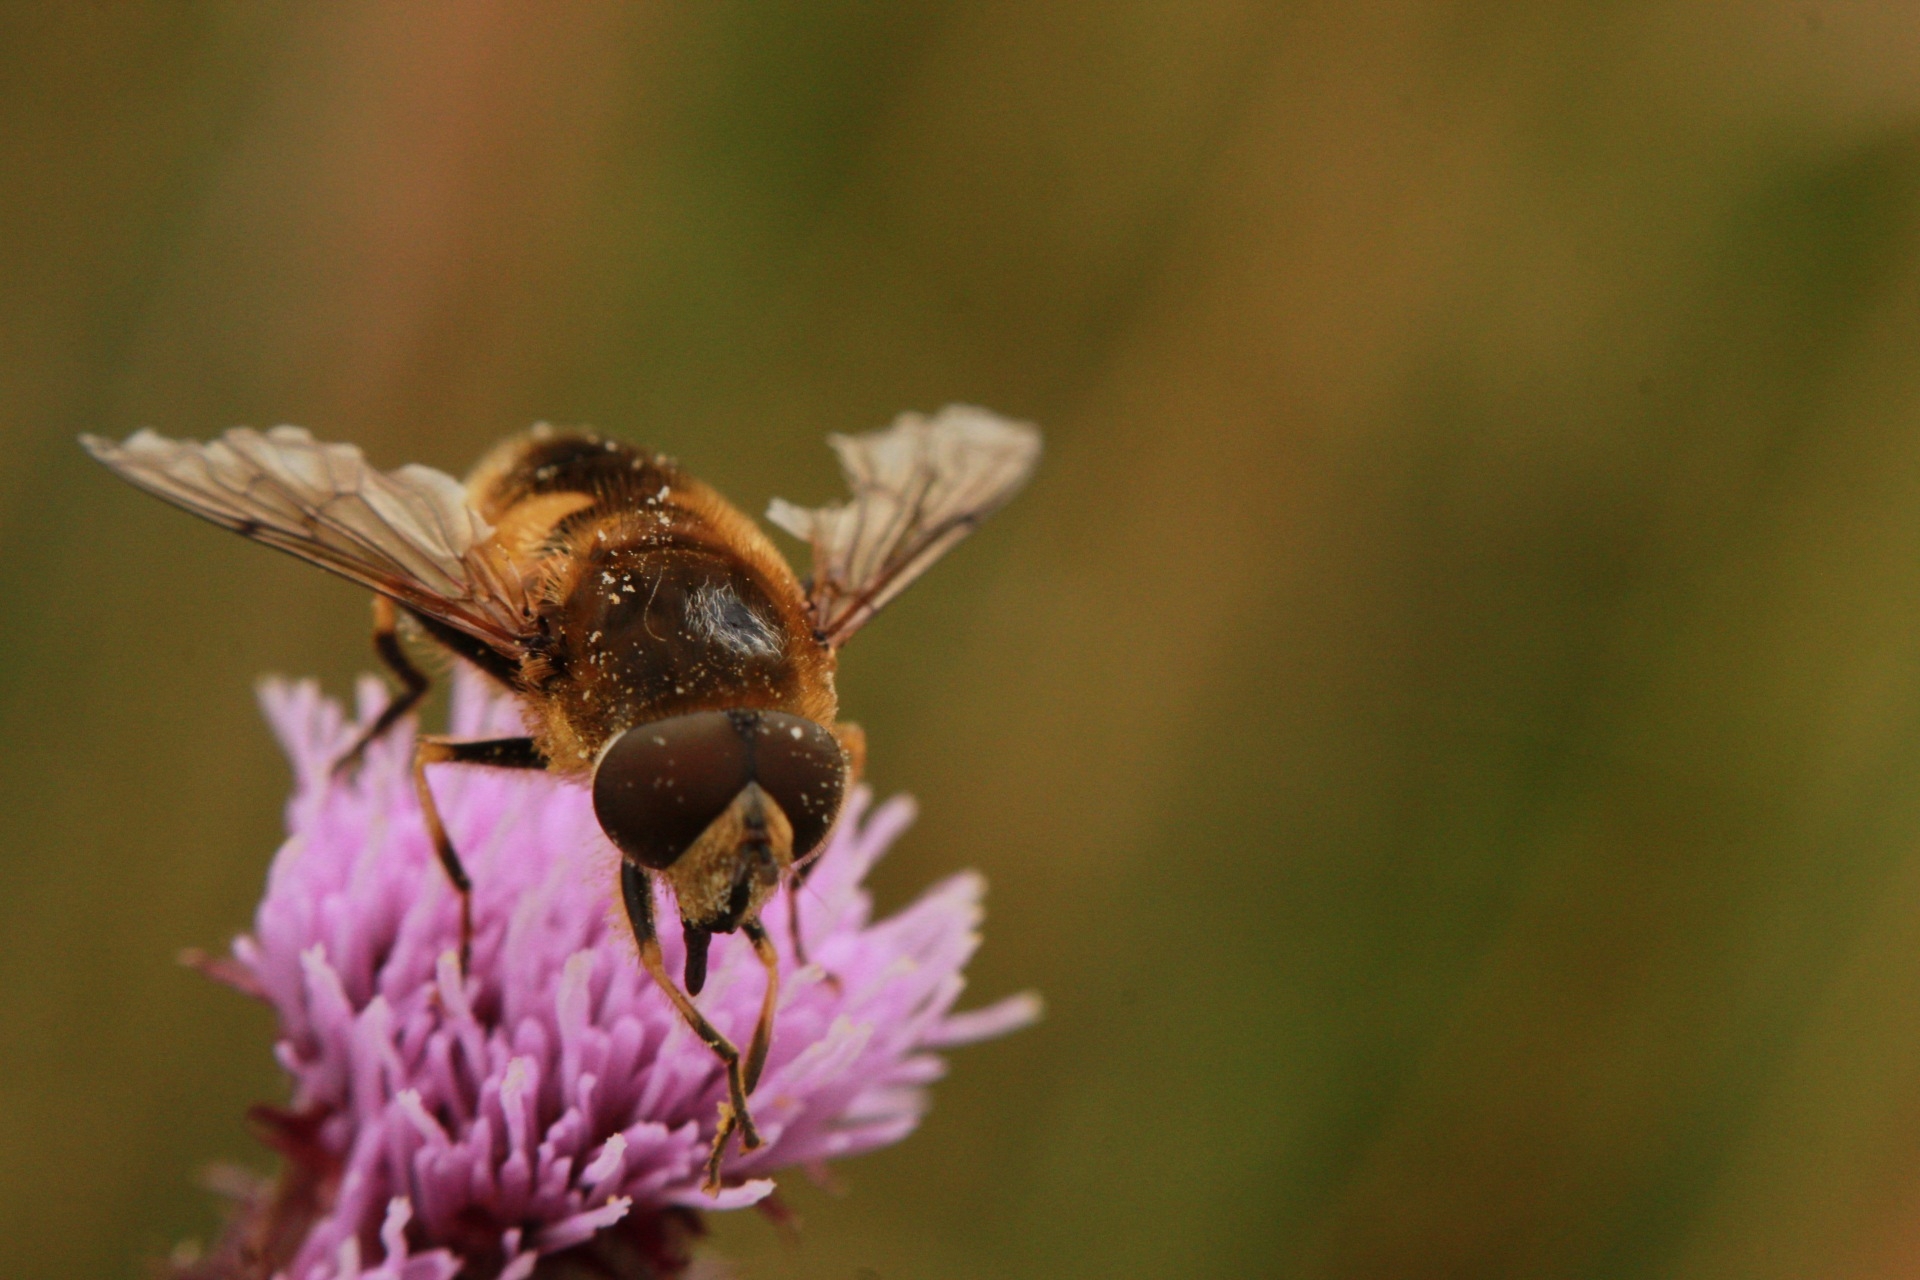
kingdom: Animalia
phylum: Arthropoda
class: Insecta
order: Diptera
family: Syrphidae
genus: Eristalis
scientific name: Eristalis nemorum
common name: Orange-spined drone fly
